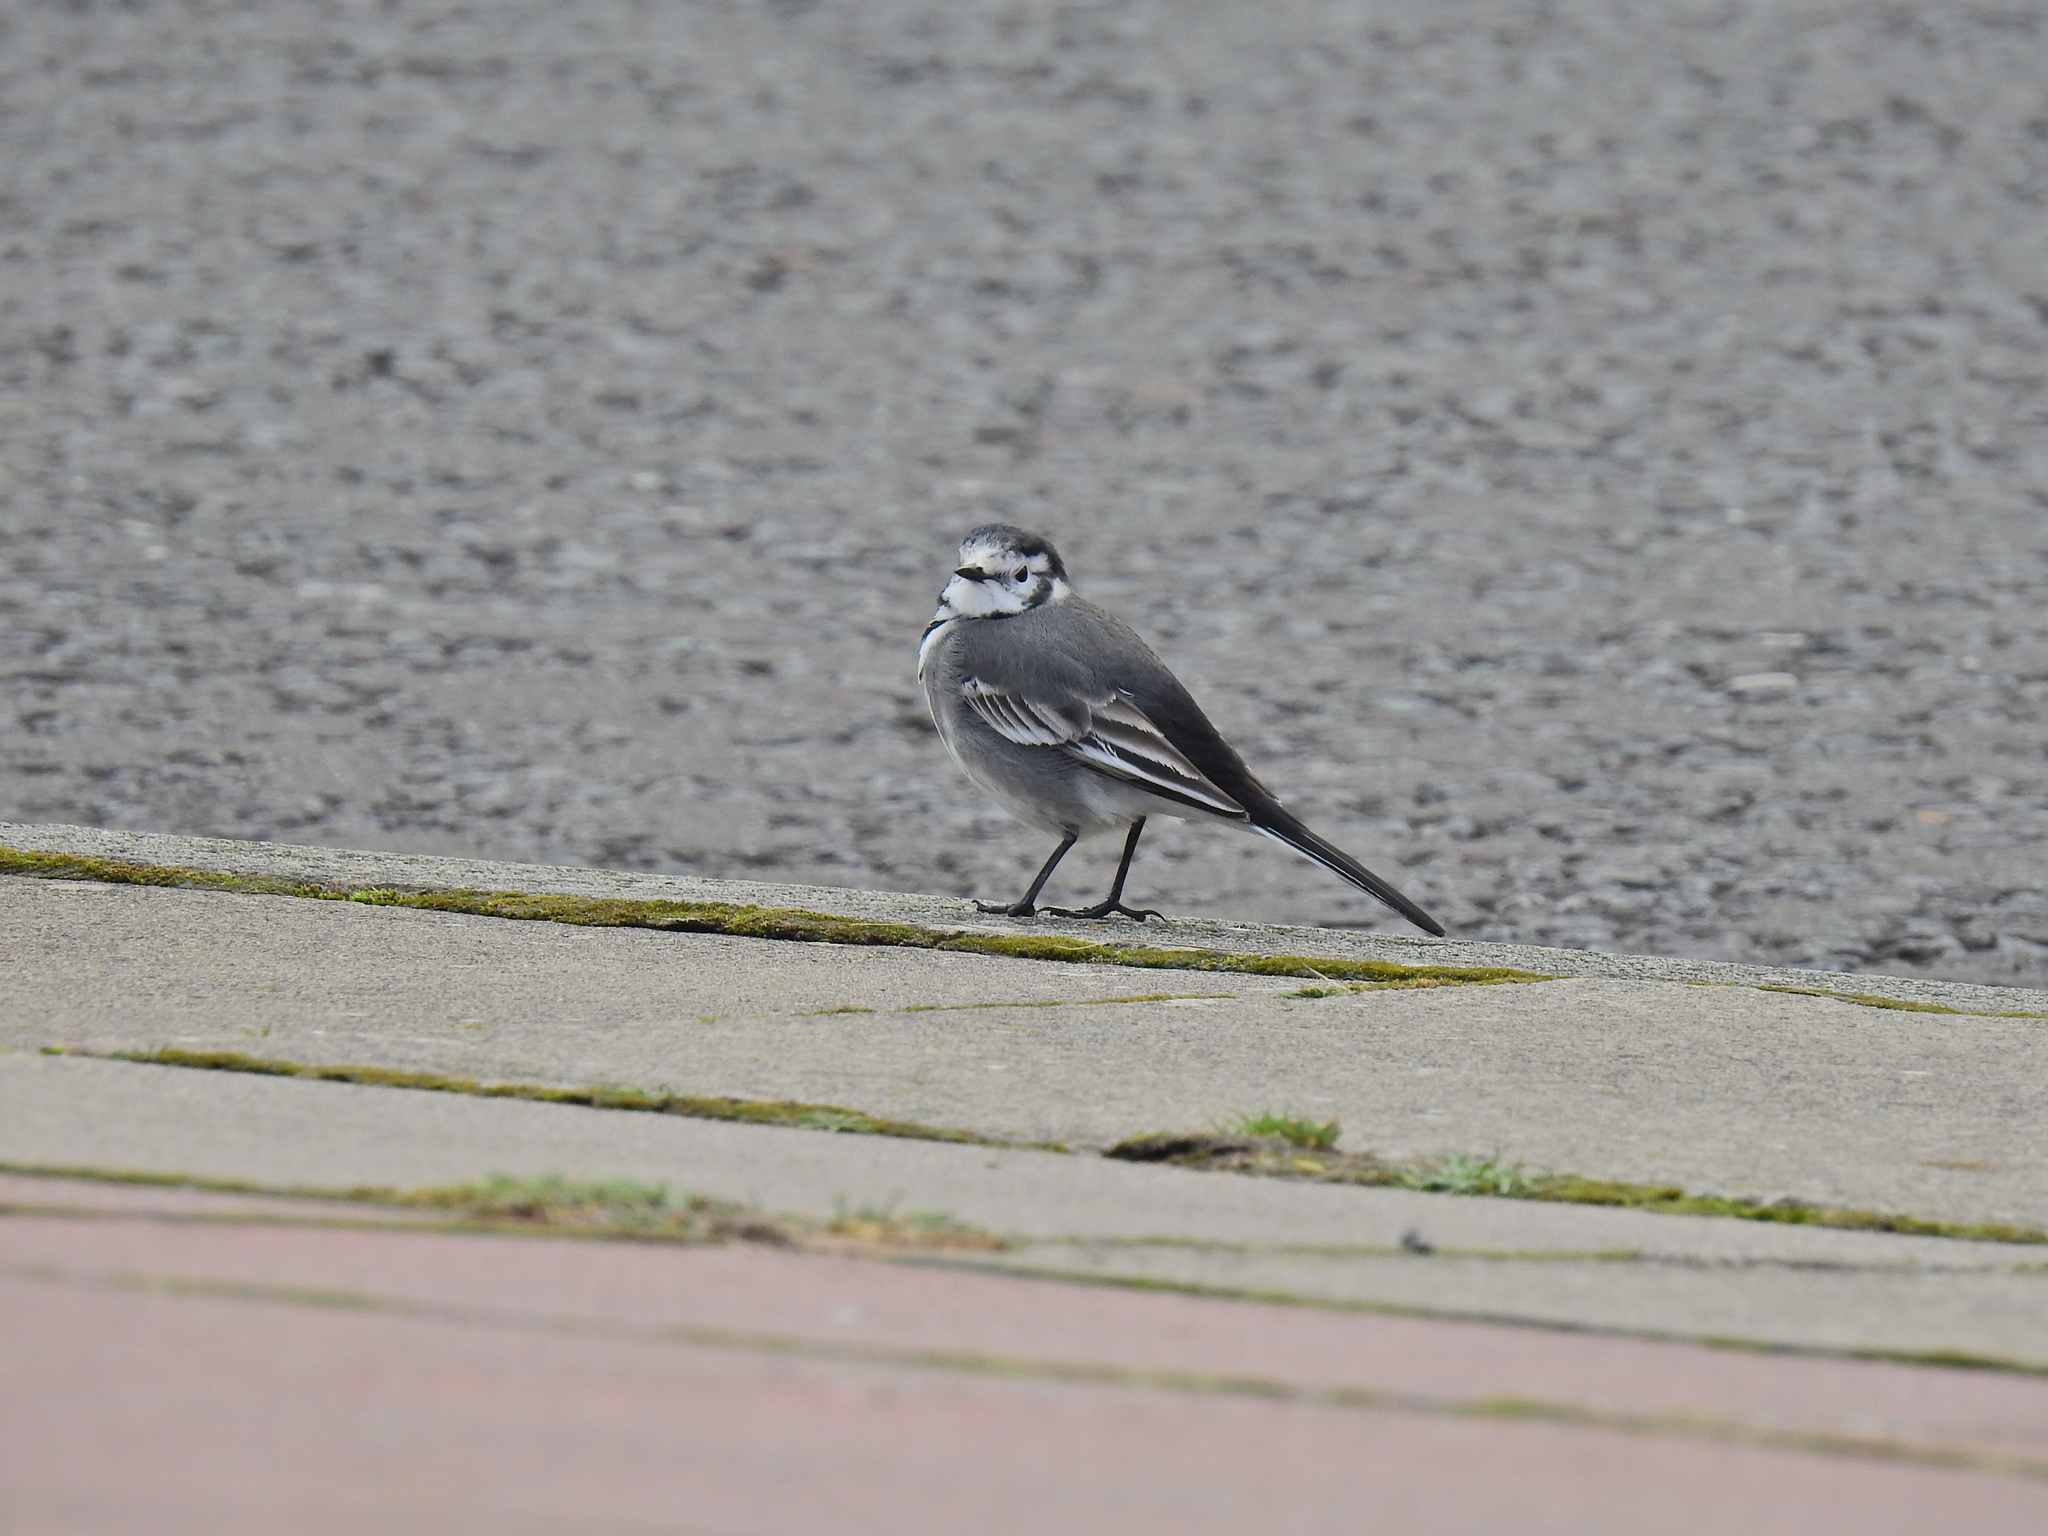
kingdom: Animalia
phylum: Chordata
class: Aves
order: Passeriformes
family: Motacillidae
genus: Motacilla
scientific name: Motacilla alba
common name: White wagtail
